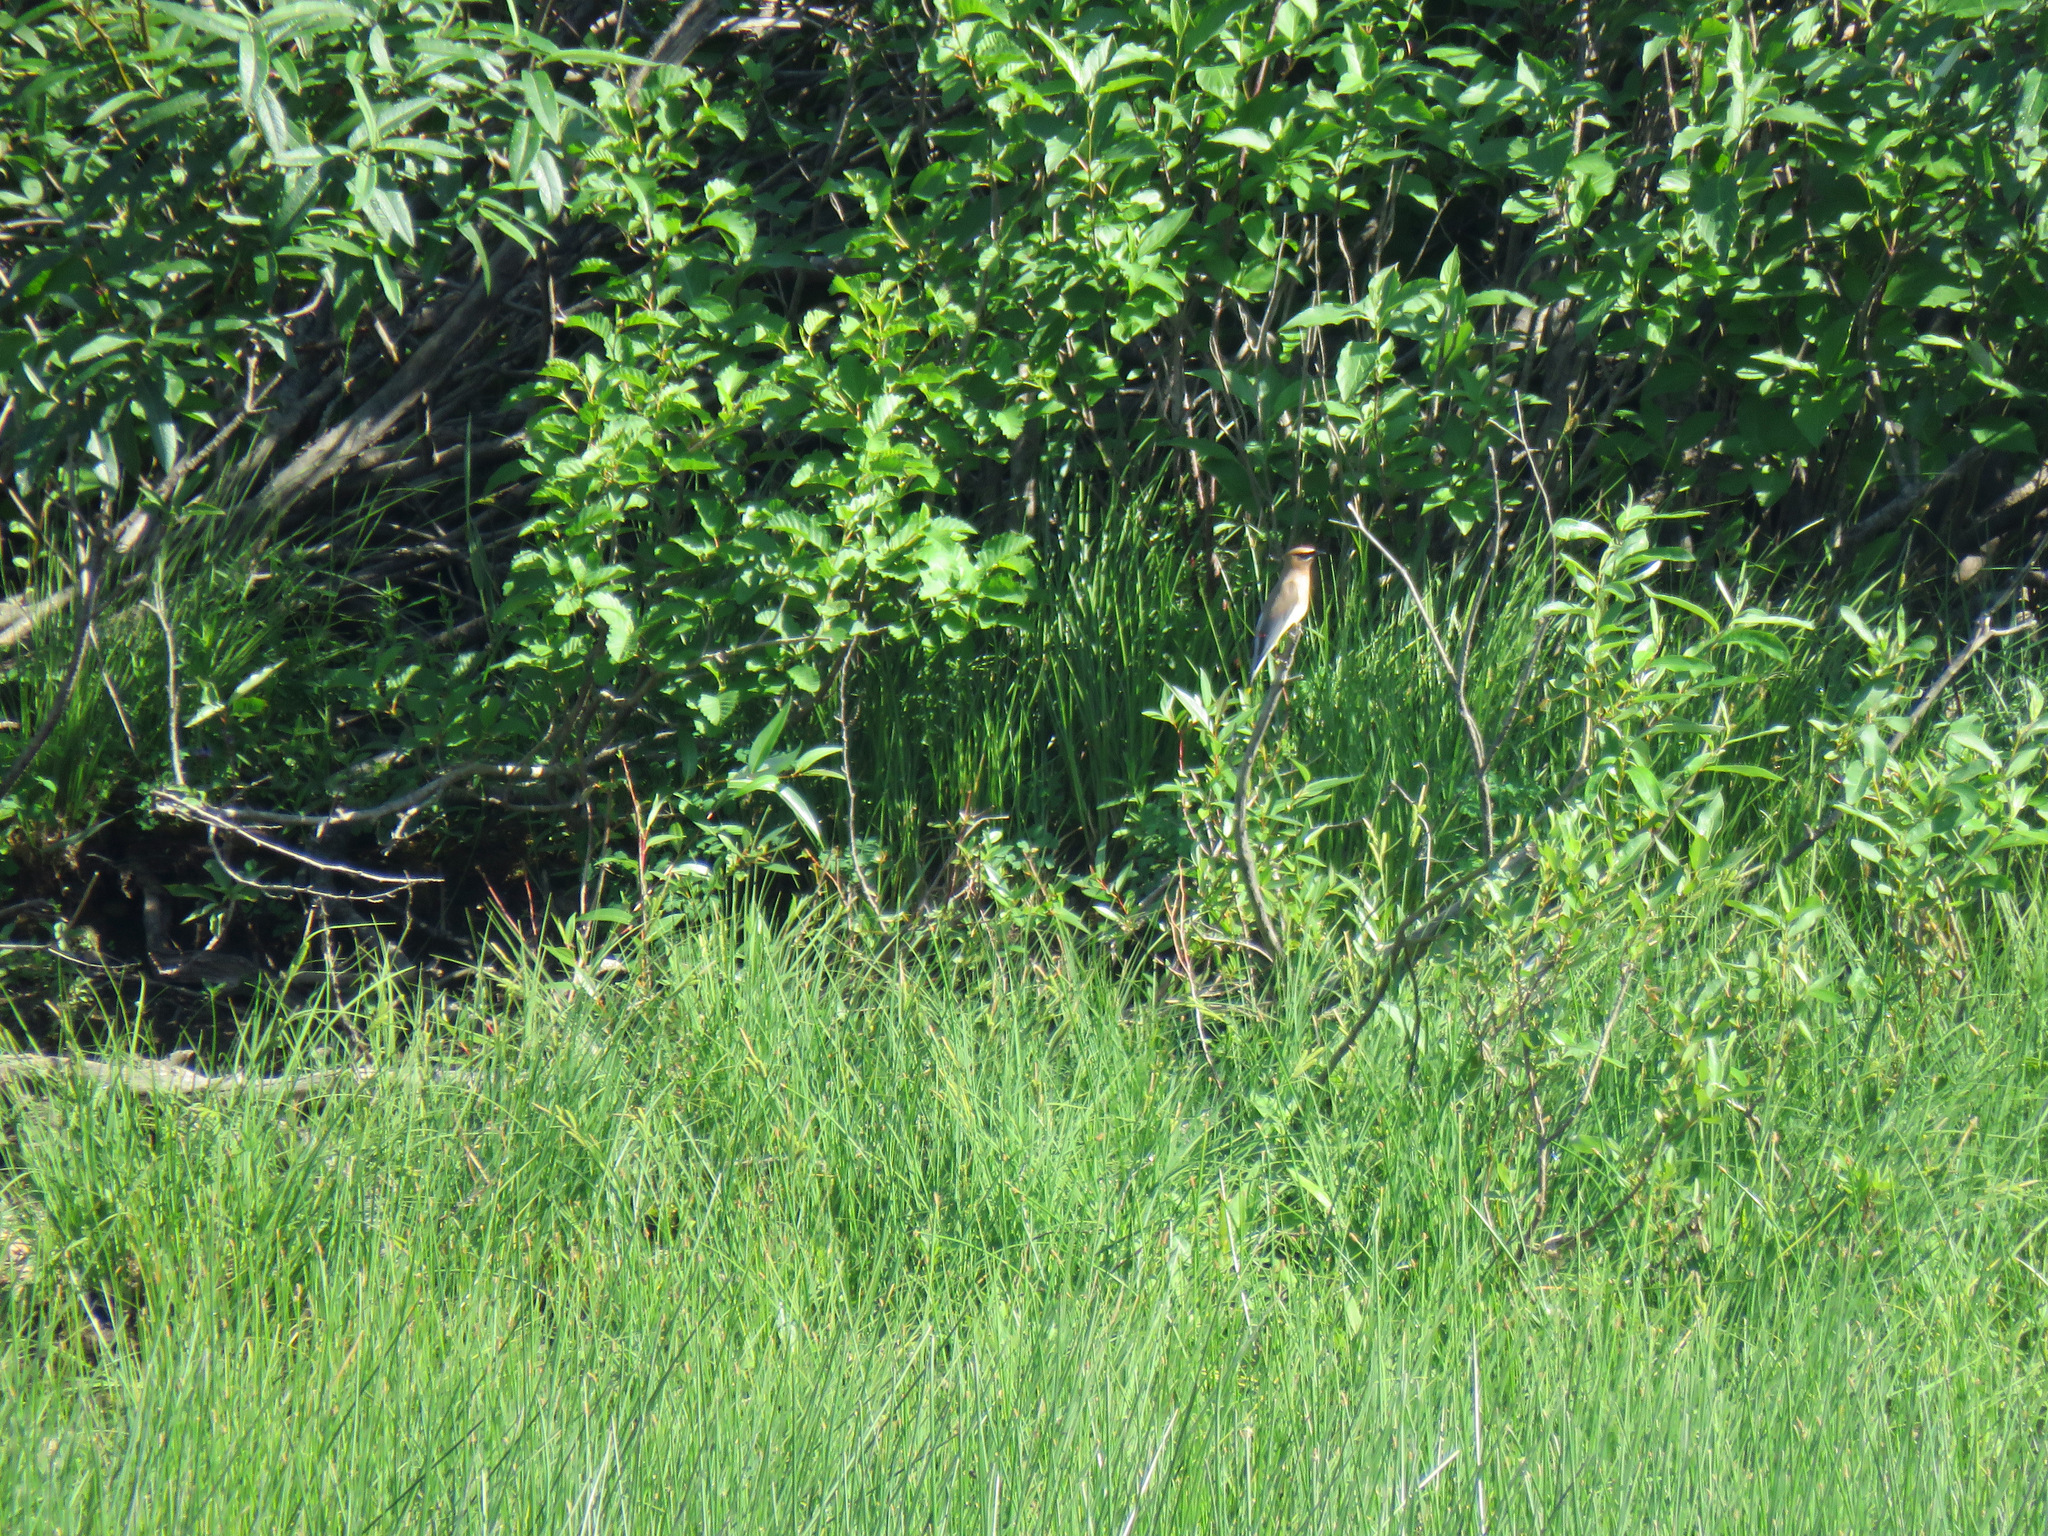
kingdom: Animalia
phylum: Chordata
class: Aves
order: Passeriformes
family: Bombycillidae
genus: Bombycilla
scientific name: Bombycilla cedrorum
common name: Cedar waxwing
